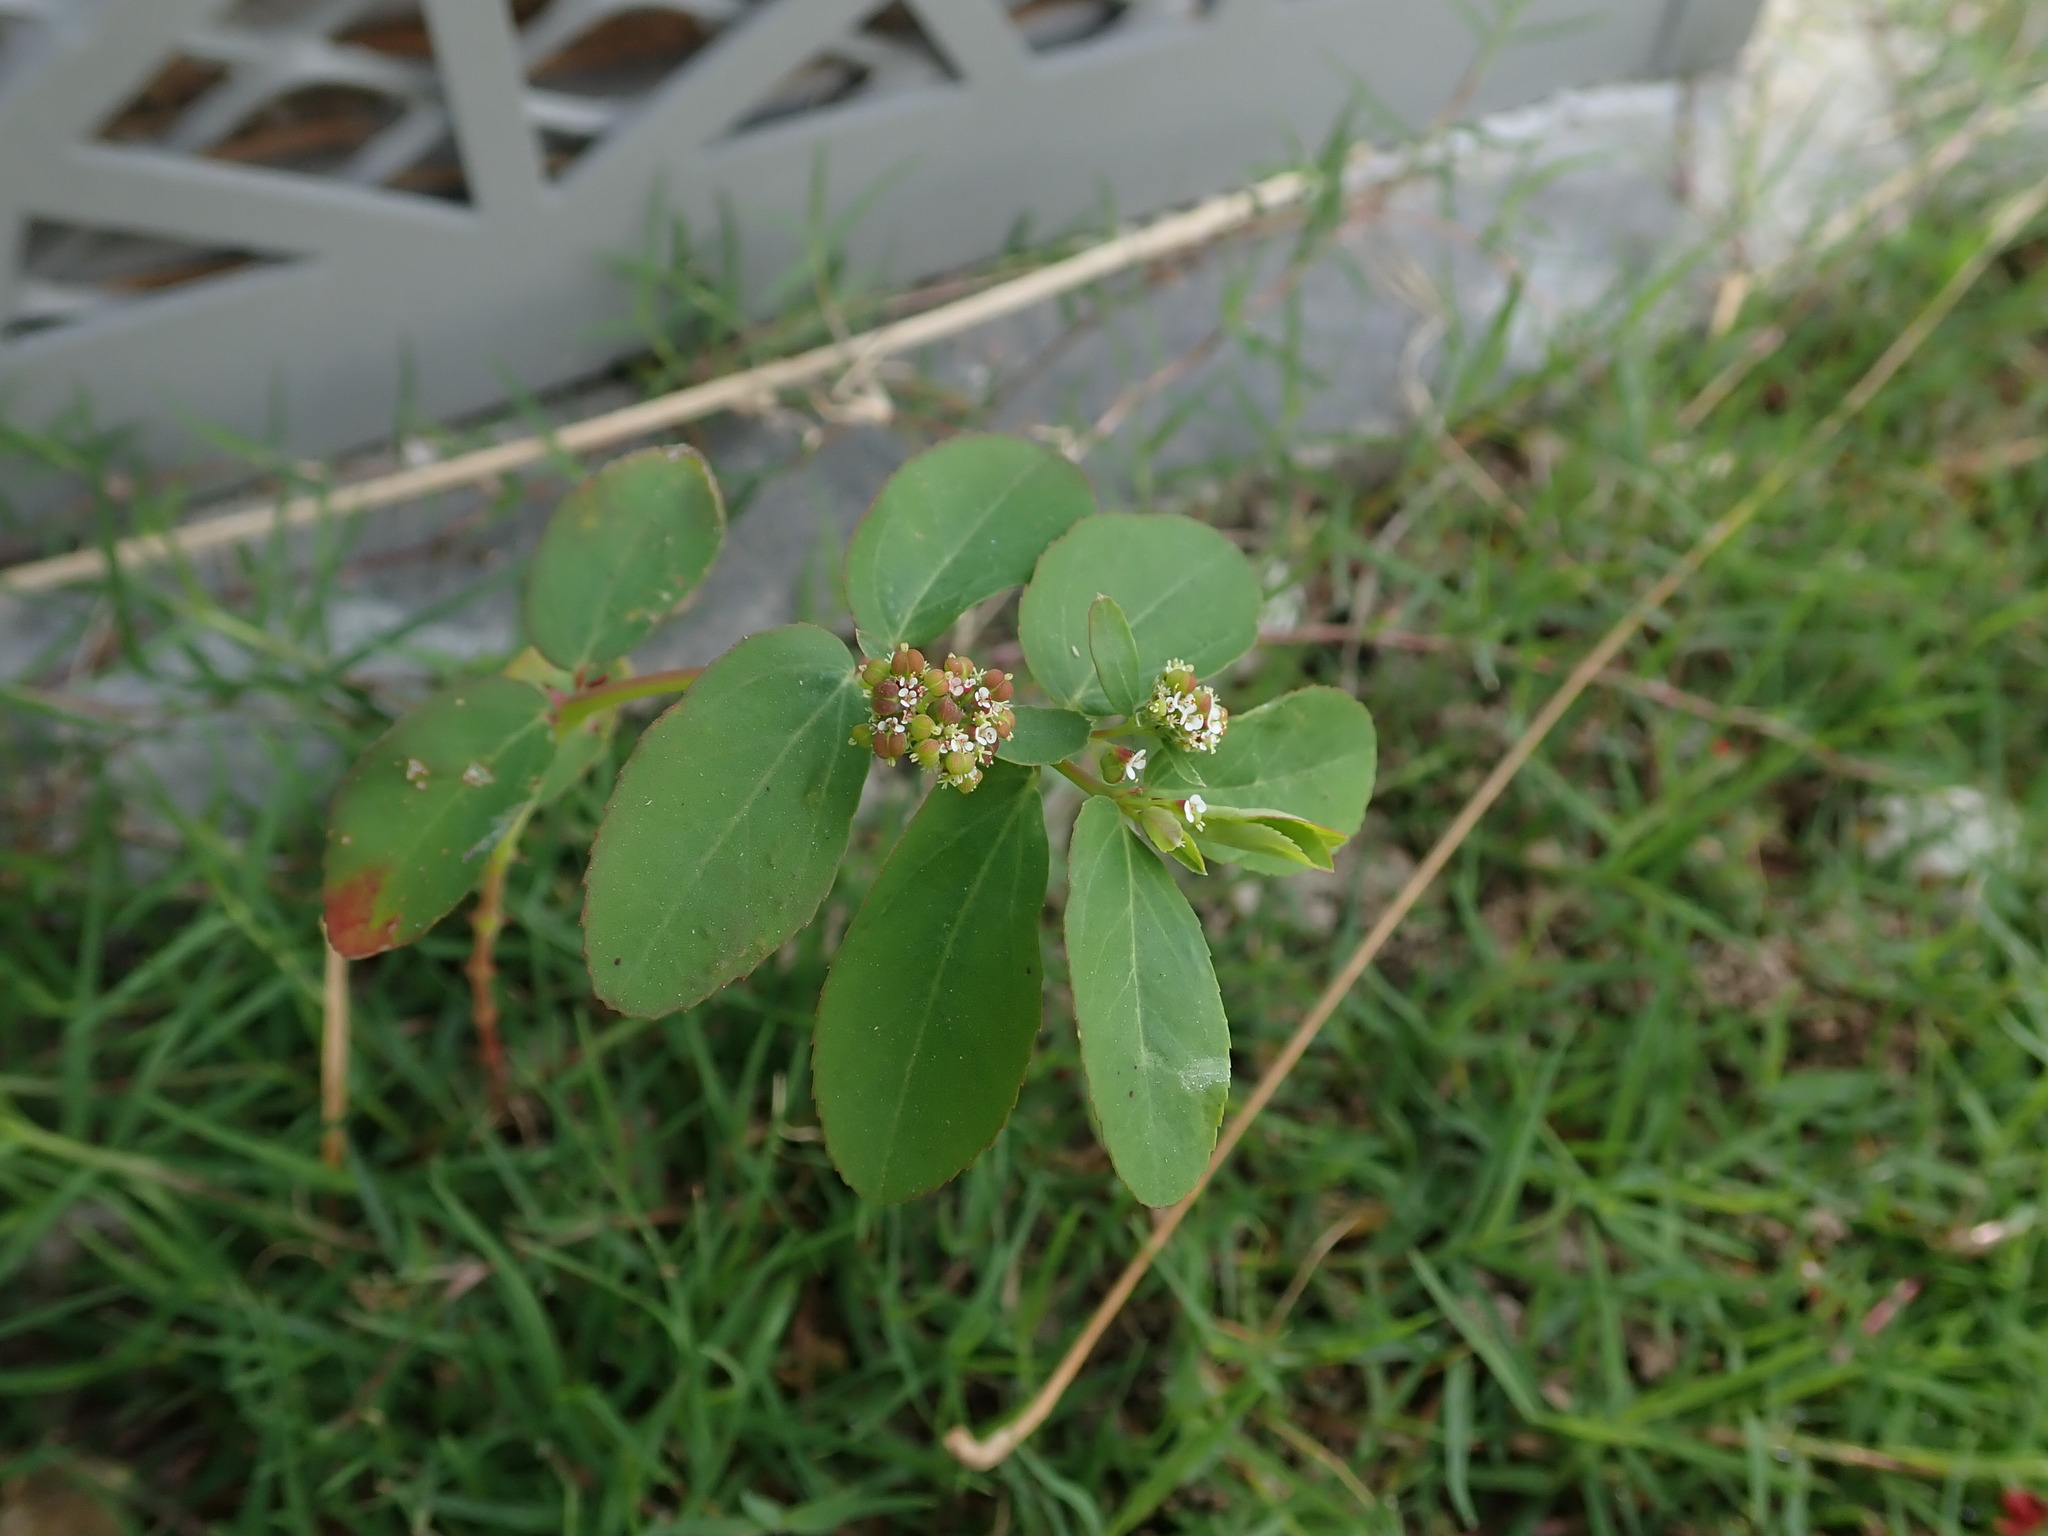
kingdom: Plantae
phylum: Tracheophyta
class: Magnoliopsida
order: Malpighiales
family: Euphorbiaceae
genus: Euphorbia
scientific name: Euphorbia hypericifolia
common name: Graceful sandmat
